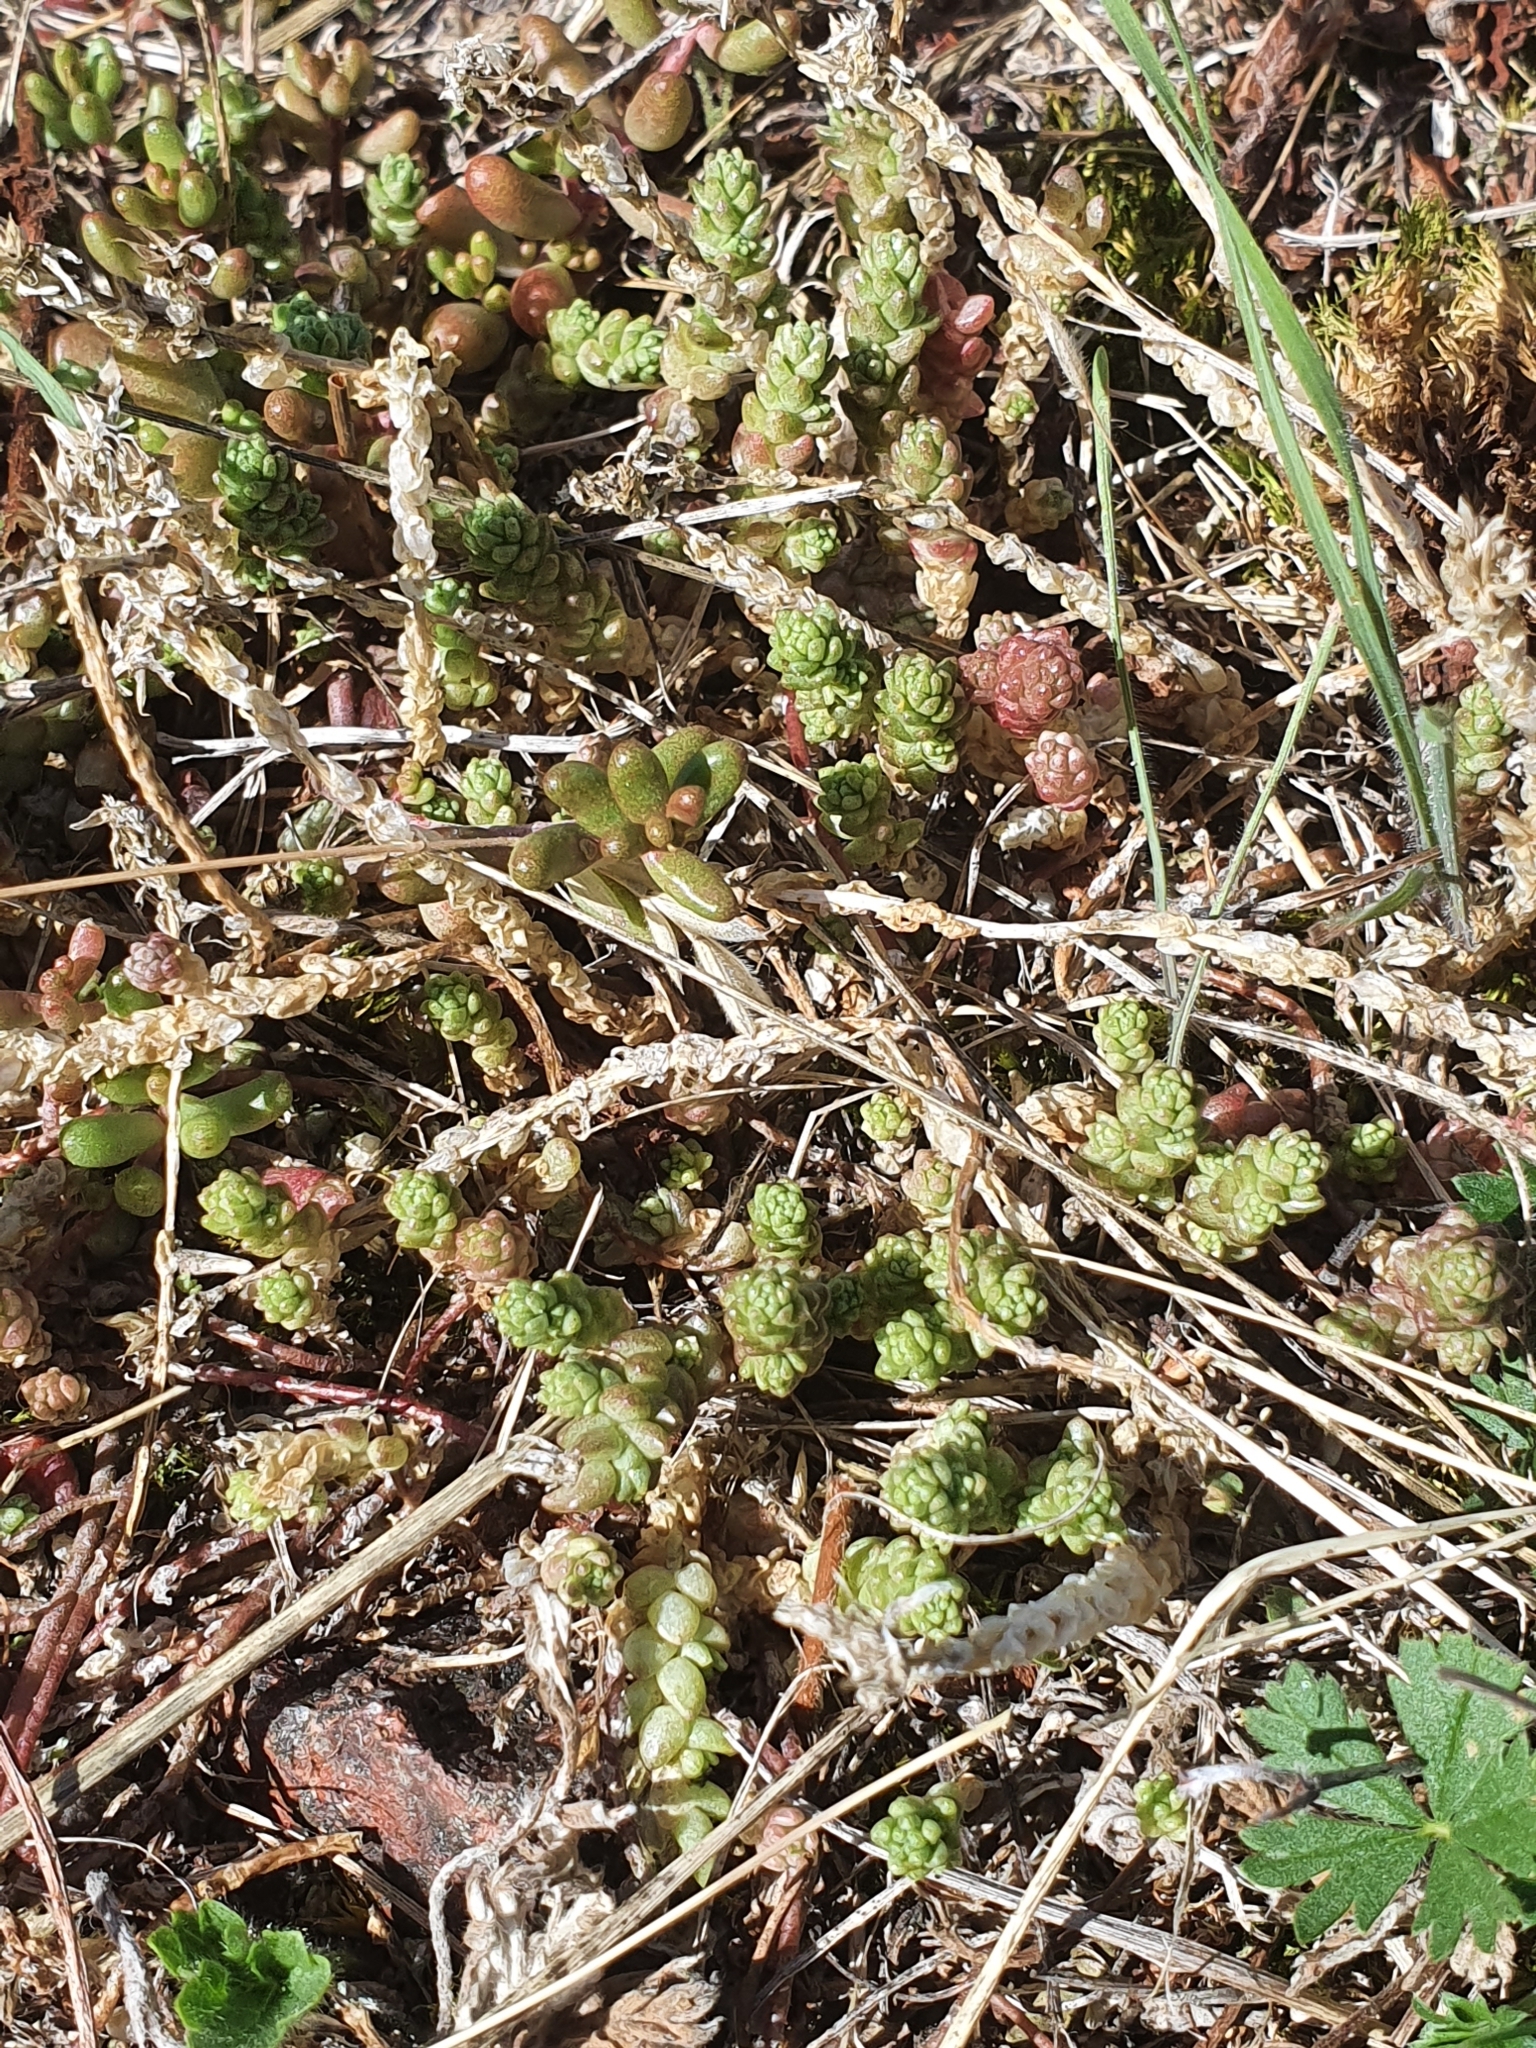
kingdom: Plantae
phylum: Tracheophyta
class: Magnoliopsida
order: Saxifragales
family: Crassulaceae
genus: Sedum
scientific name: Sedum acre
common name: Biting stonecrop
